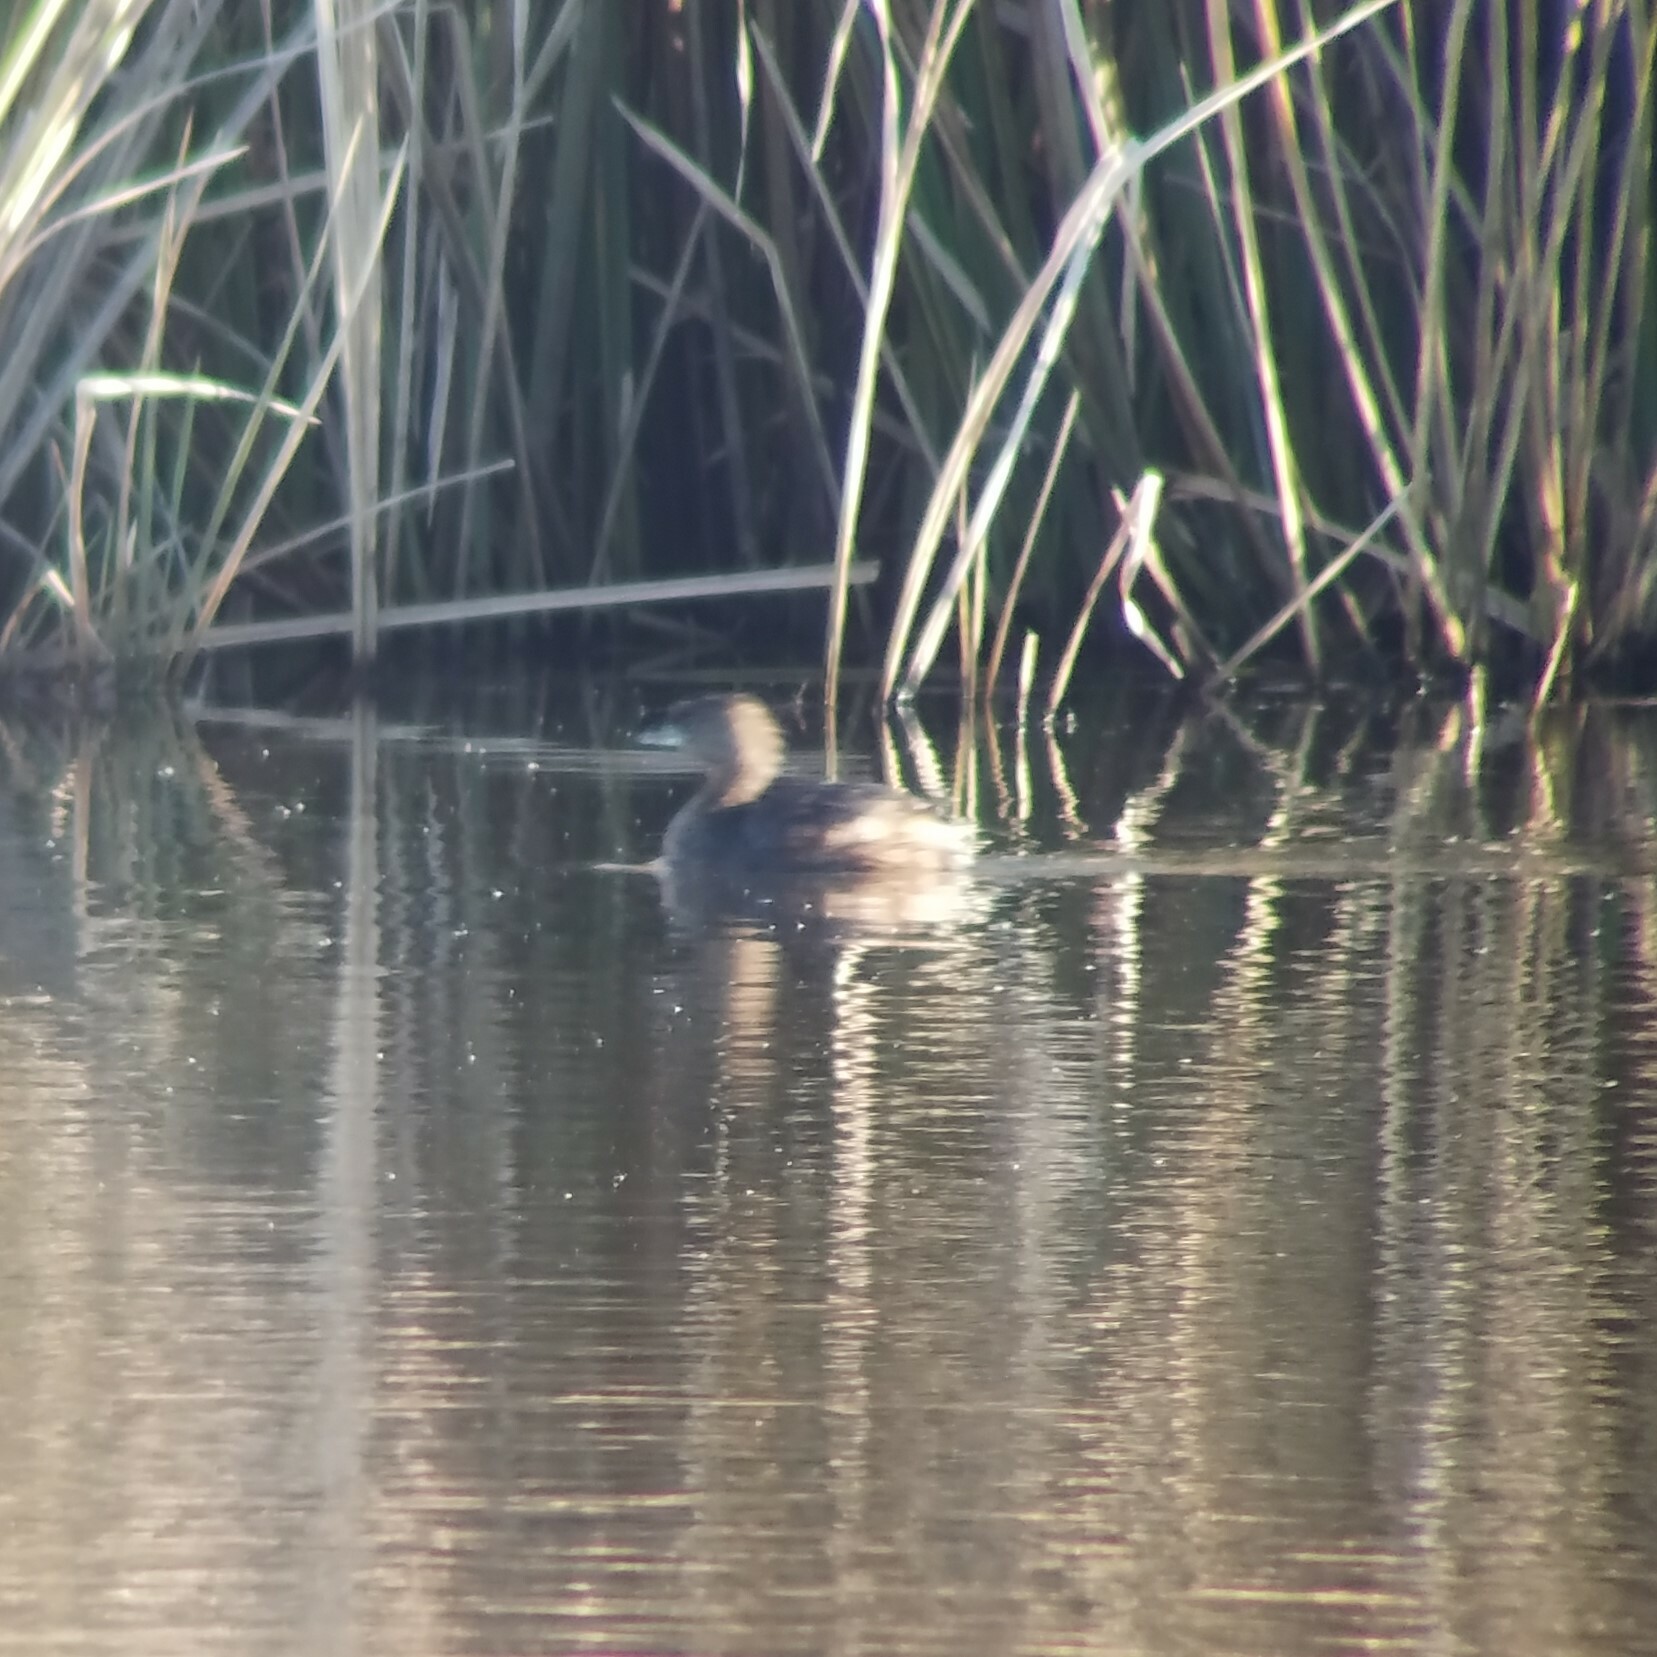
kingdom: Animalia
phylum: Chordata
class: Aves
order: Podicipediformes
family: Podicipedidae
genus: Podilymbus
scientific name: Podilymbus podiceps
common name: Pied-billed grebe
